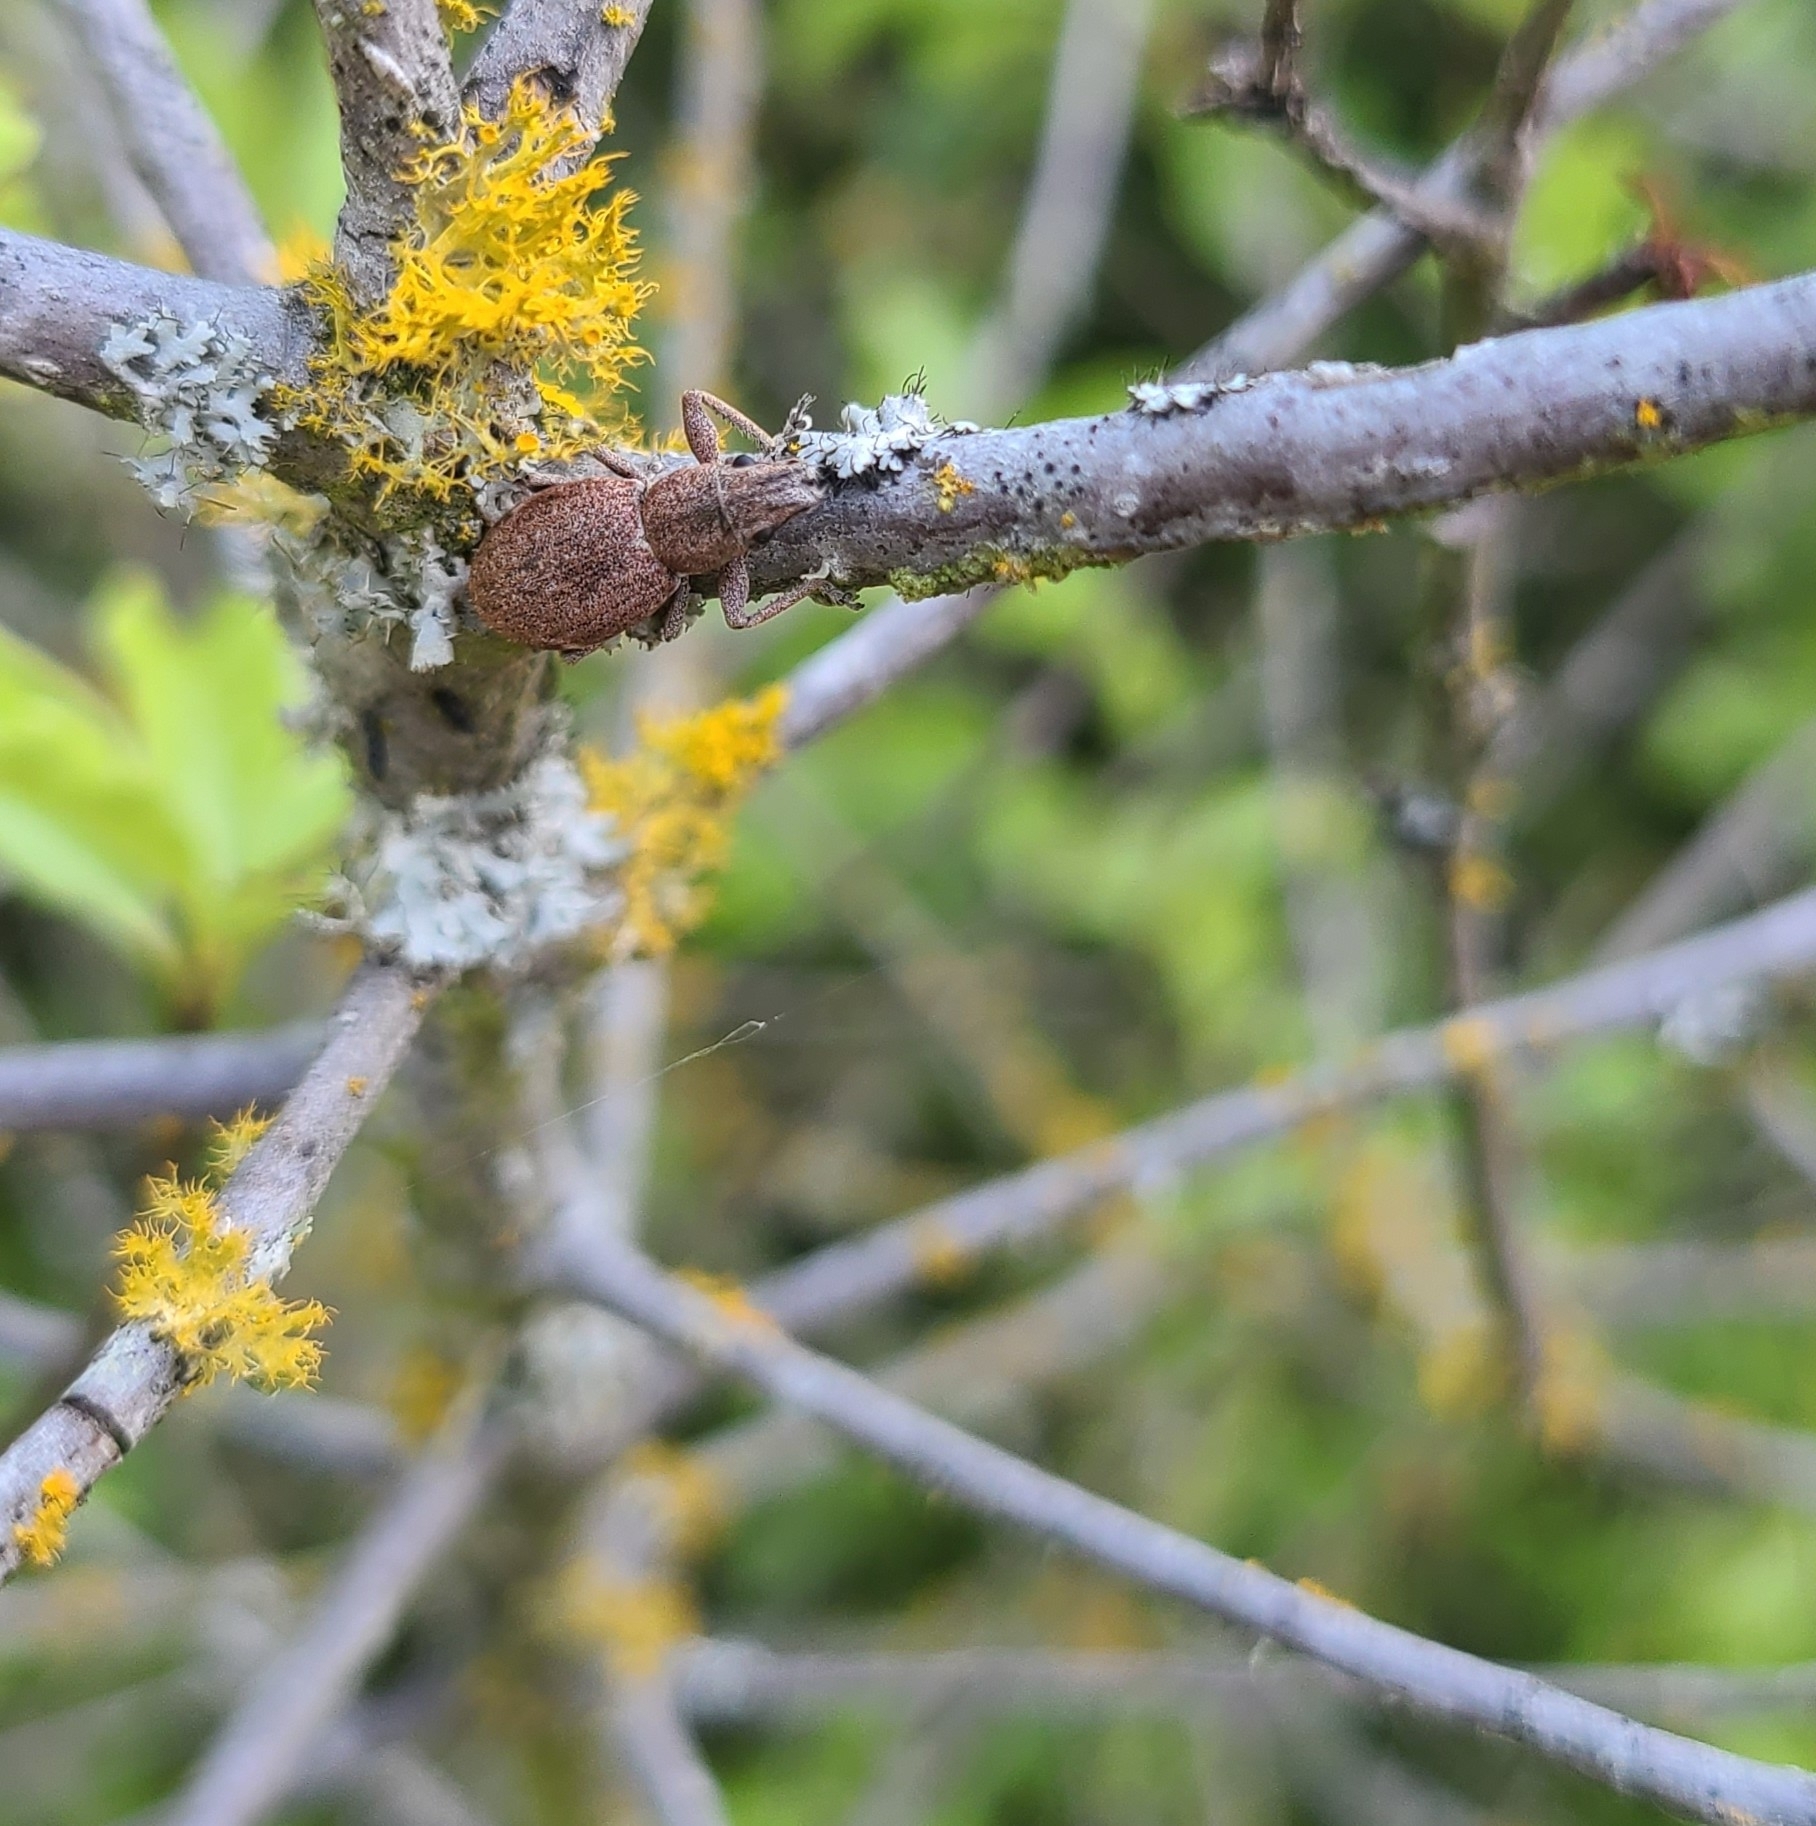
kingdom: Animalia
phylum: Arthropoda
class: Insecta
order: Coleoptera
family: Curculionidae
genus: Naupactus
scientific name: Naupactus cervinus
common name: Fuller rose beetle
